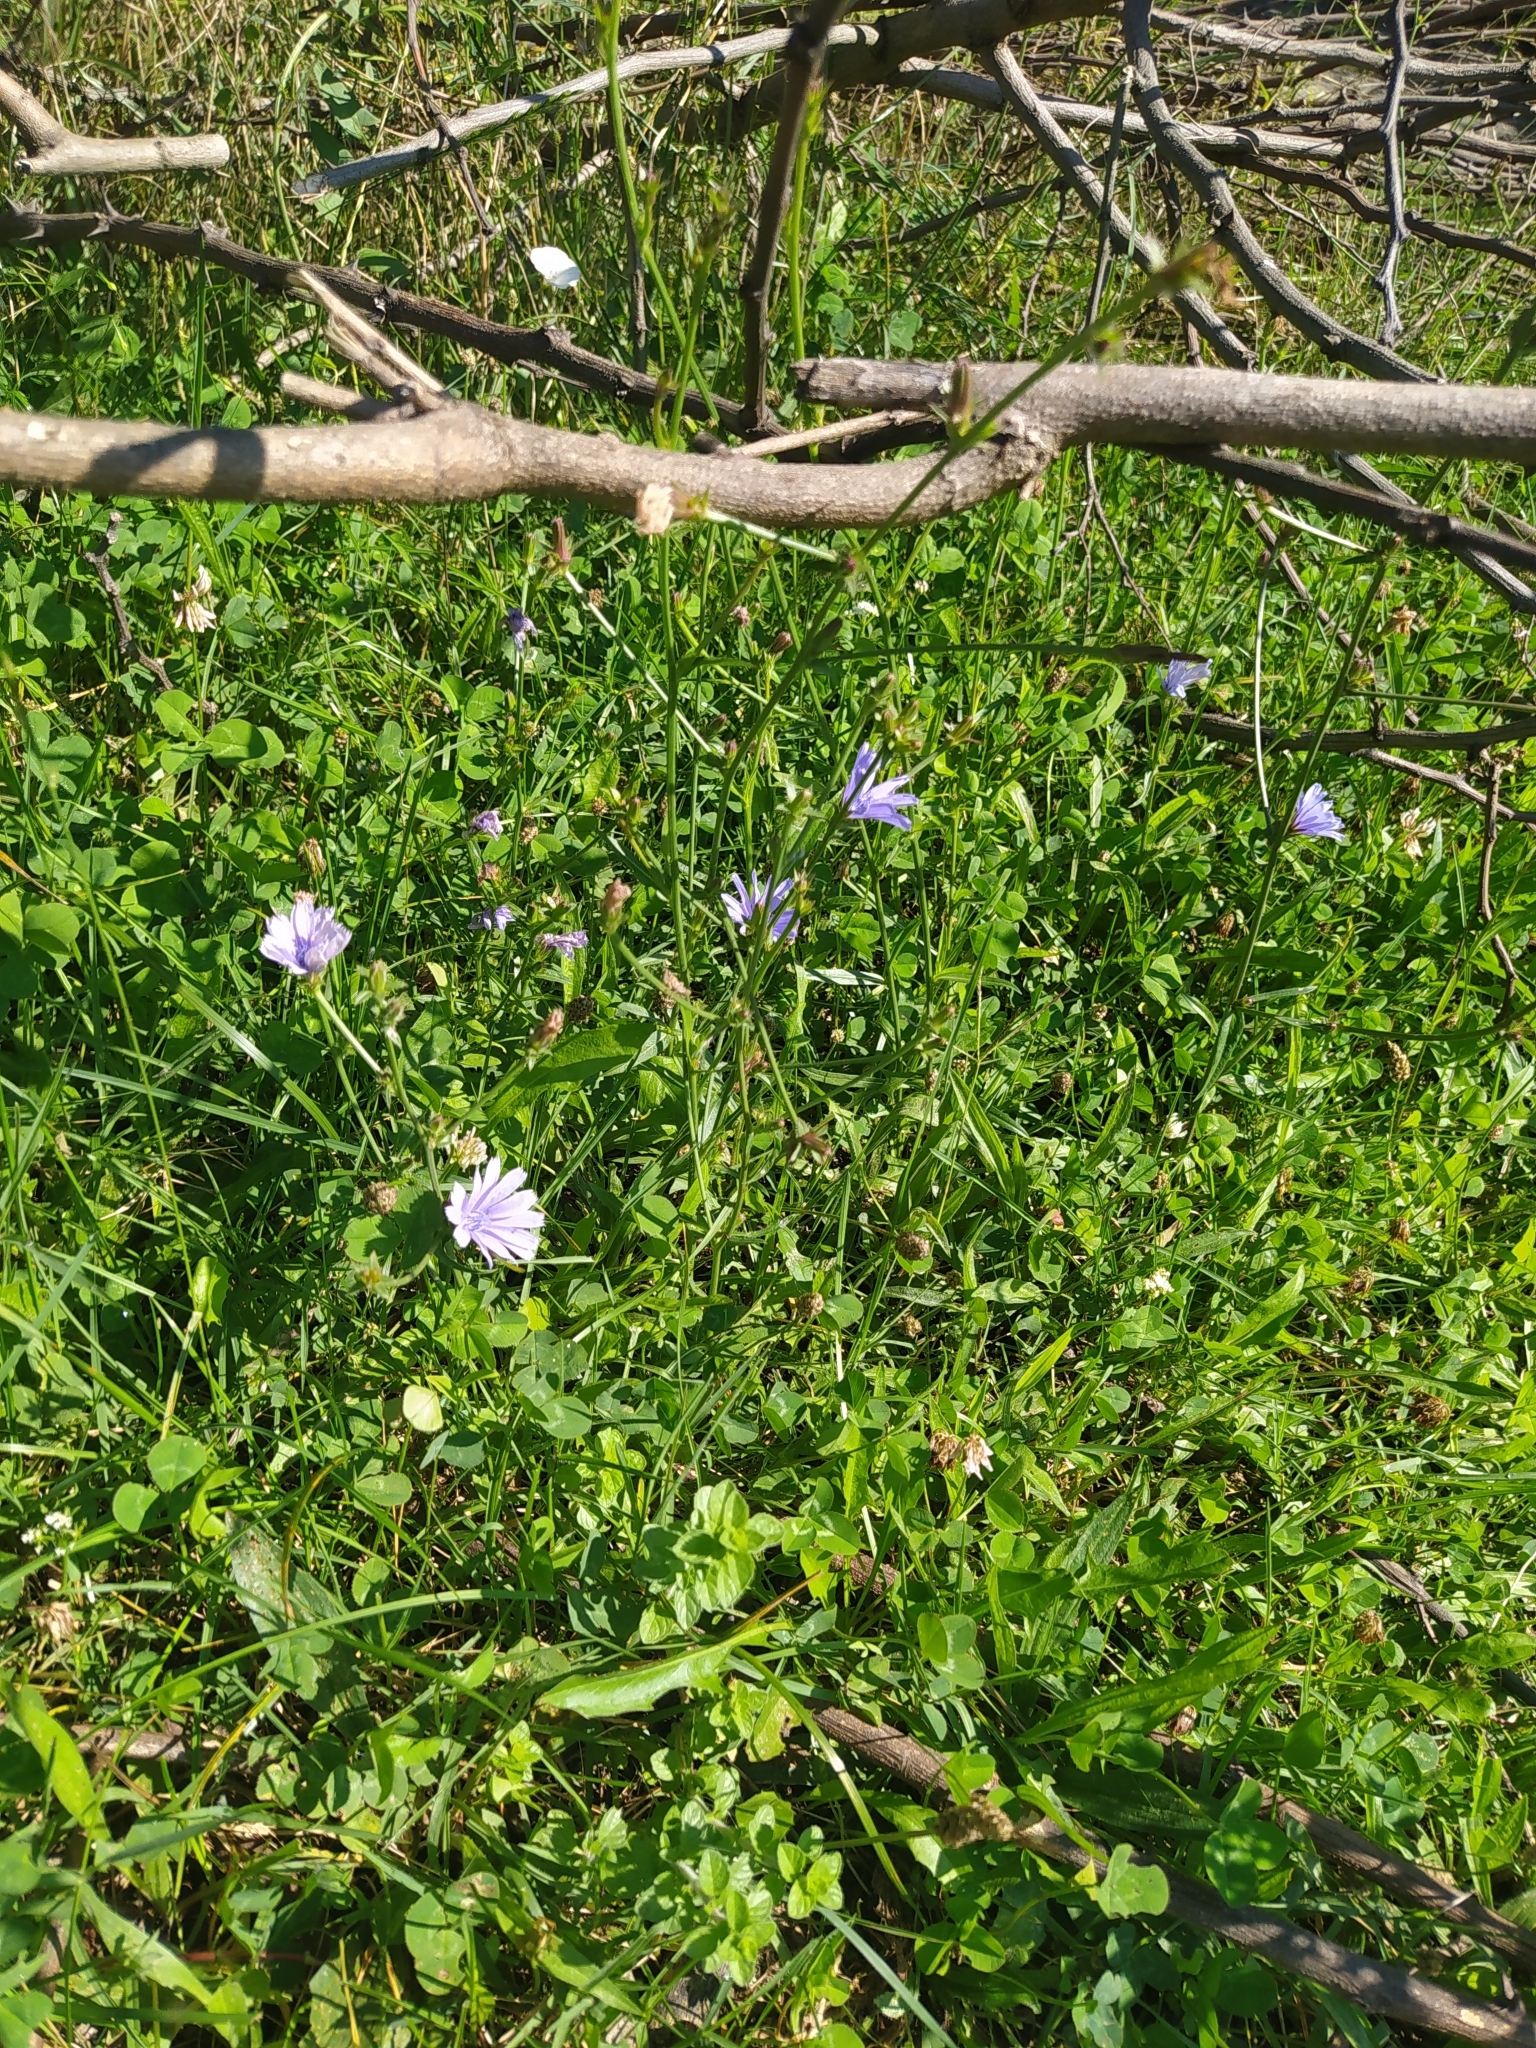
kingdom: Plantae
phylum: Tracheophyta
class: Magnoliopsida
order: Asterales
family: Asteraceae
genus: Cichorium
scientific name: Cichorium intybus
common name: Chicory
